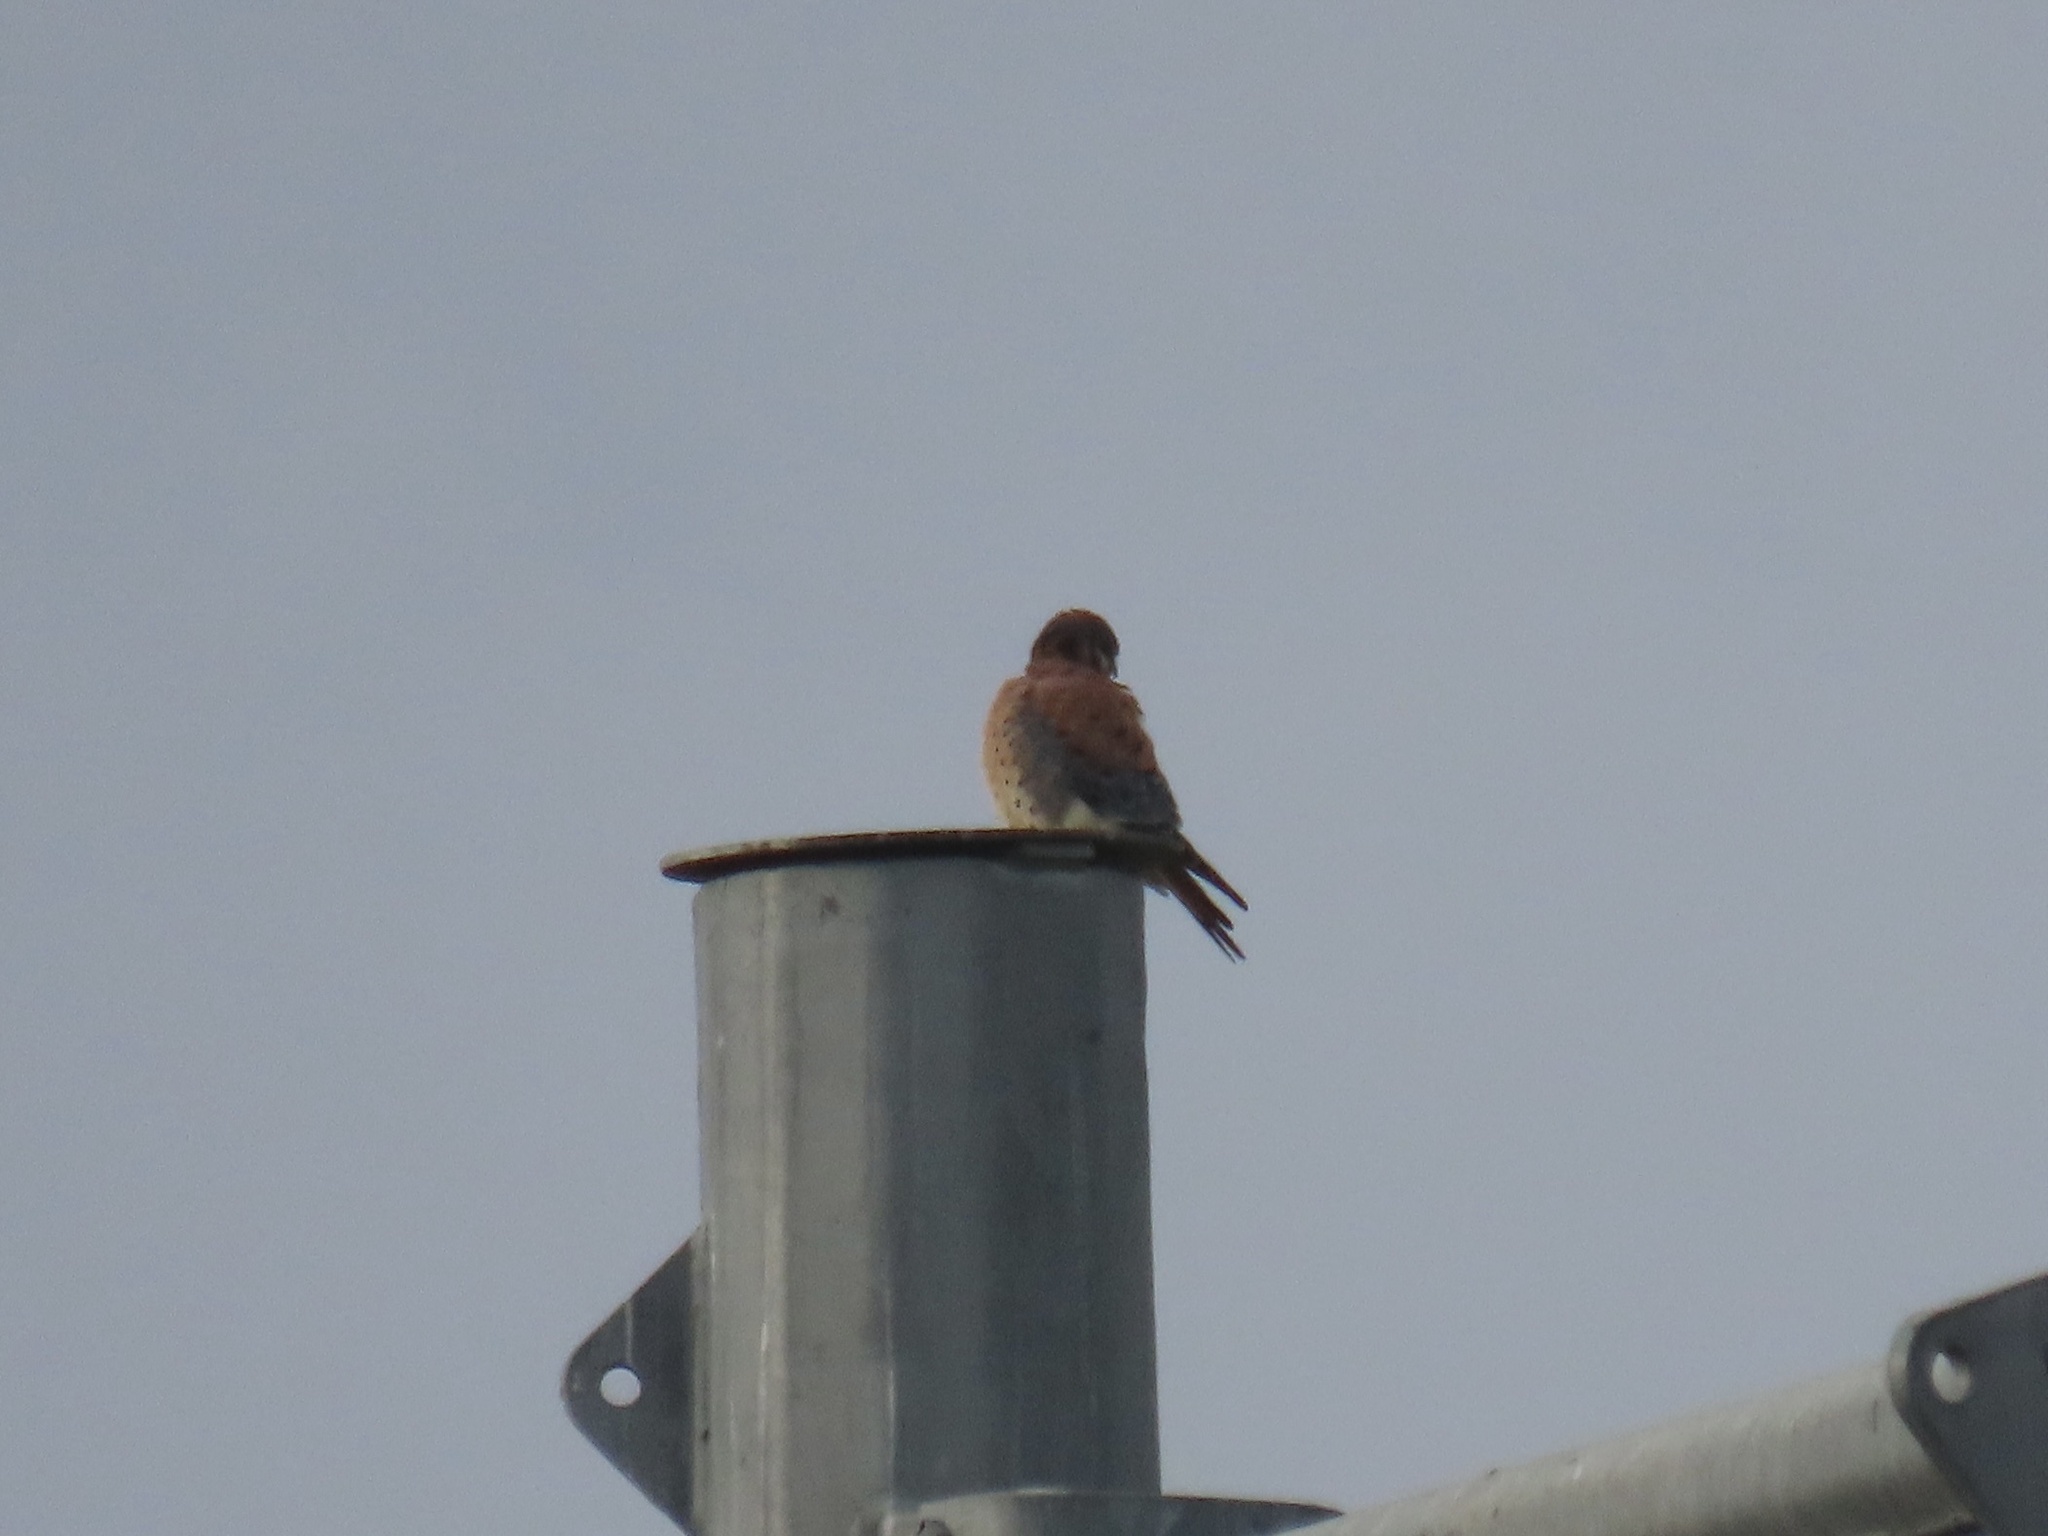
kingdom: Animalia
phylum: Chordata
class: Aves
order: Falconiformes
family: Falconidae
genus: Falco
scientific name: Falco sparverius
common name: American kestrel
